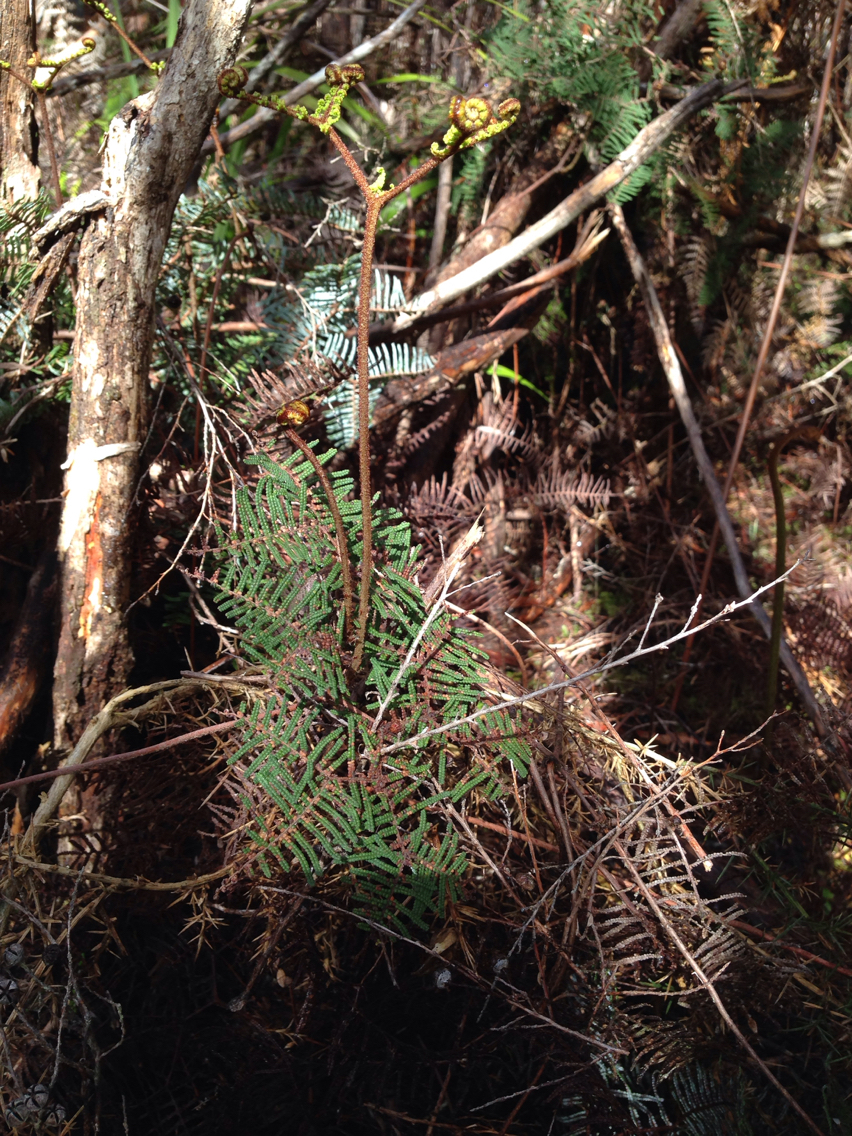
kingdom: Plantae
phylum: Tracheophyta
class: Polypodiopsida
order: Gleicheniales
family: Gleicheniaceae
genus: Gleichenia
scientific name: Gleichenia dicarpa
